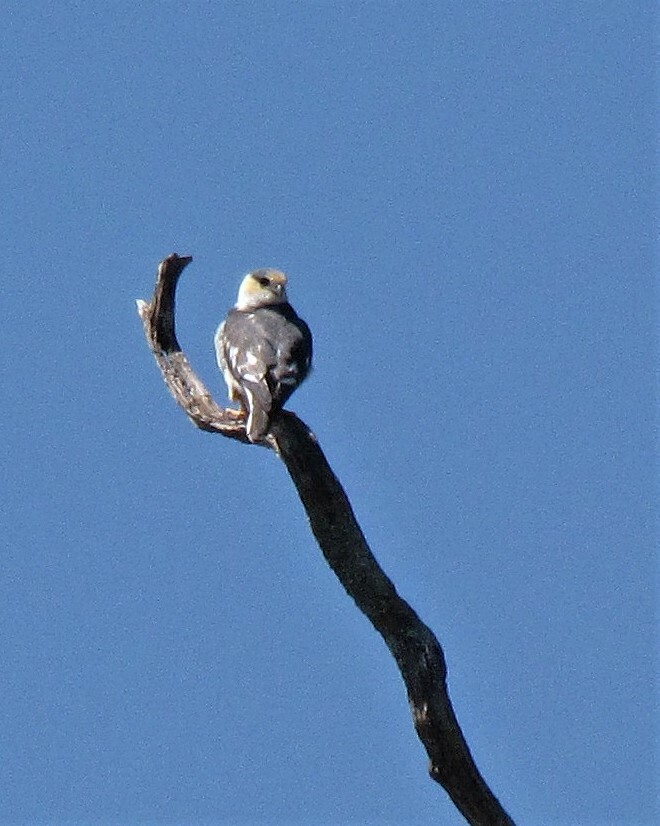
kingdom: Animalia
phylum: Chordata
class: Aves
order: Accipitriformes
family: Accipitridae
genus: Gampsonyx
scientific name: Gampsonyx swainsonii
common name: Pearl kite
